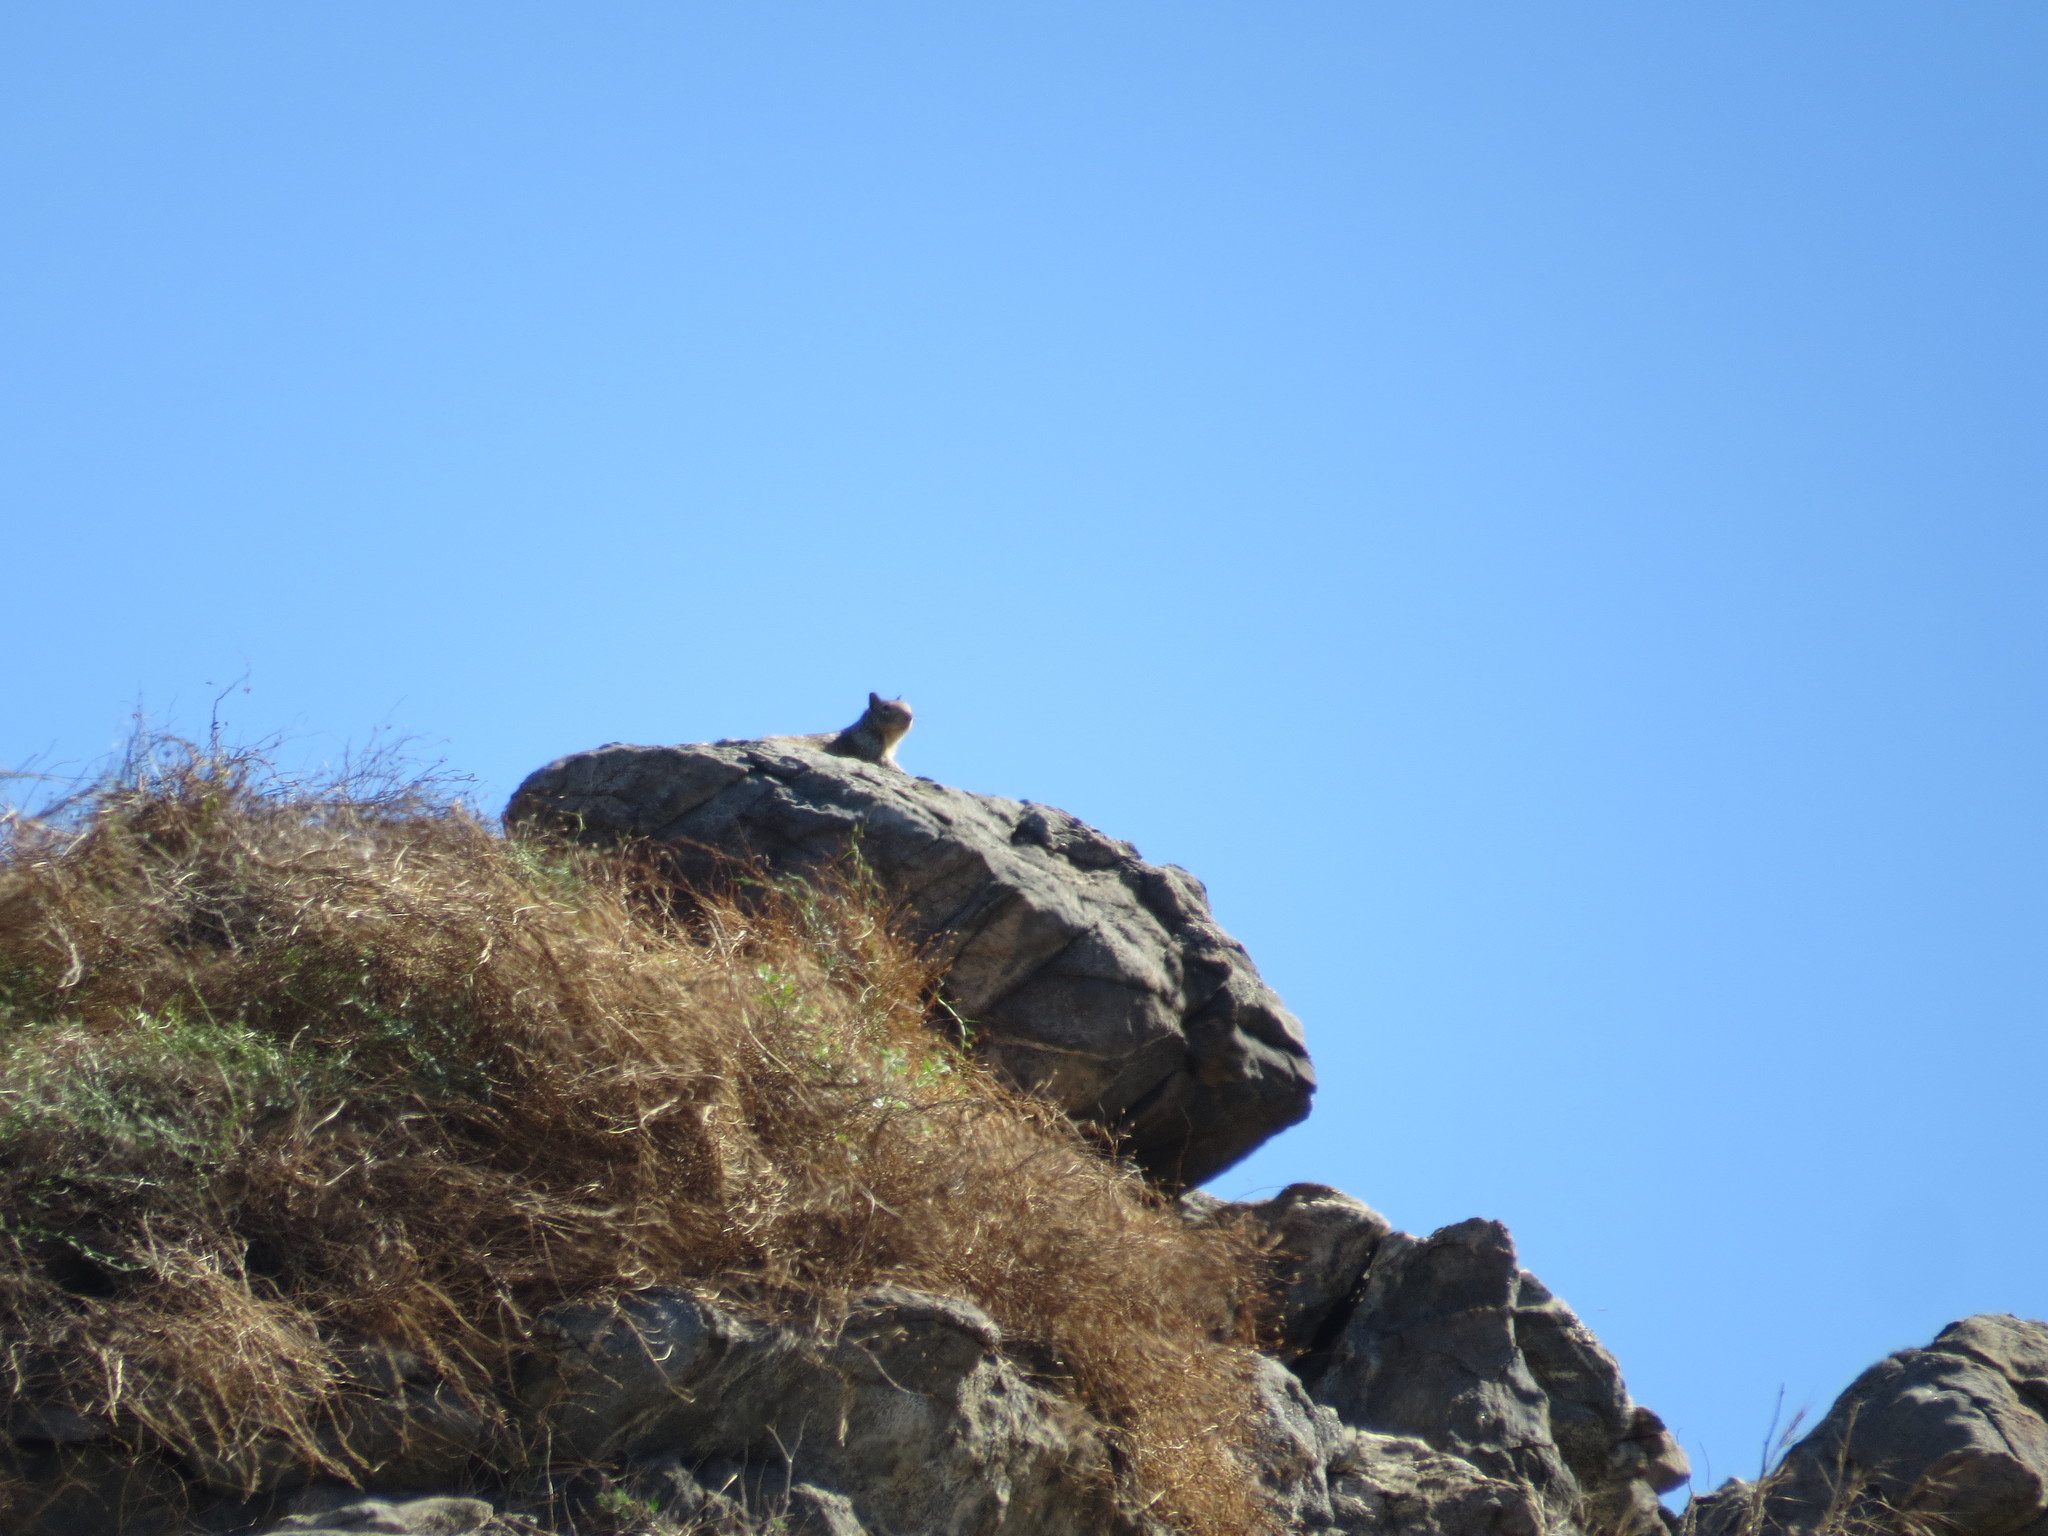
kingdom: Animalia
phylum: Chordata
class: Mammalia
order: Rodentia
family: Sciuridae
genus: Otospermophilus
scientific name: Otospermophilus beecheyi
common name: California ground squirrel
